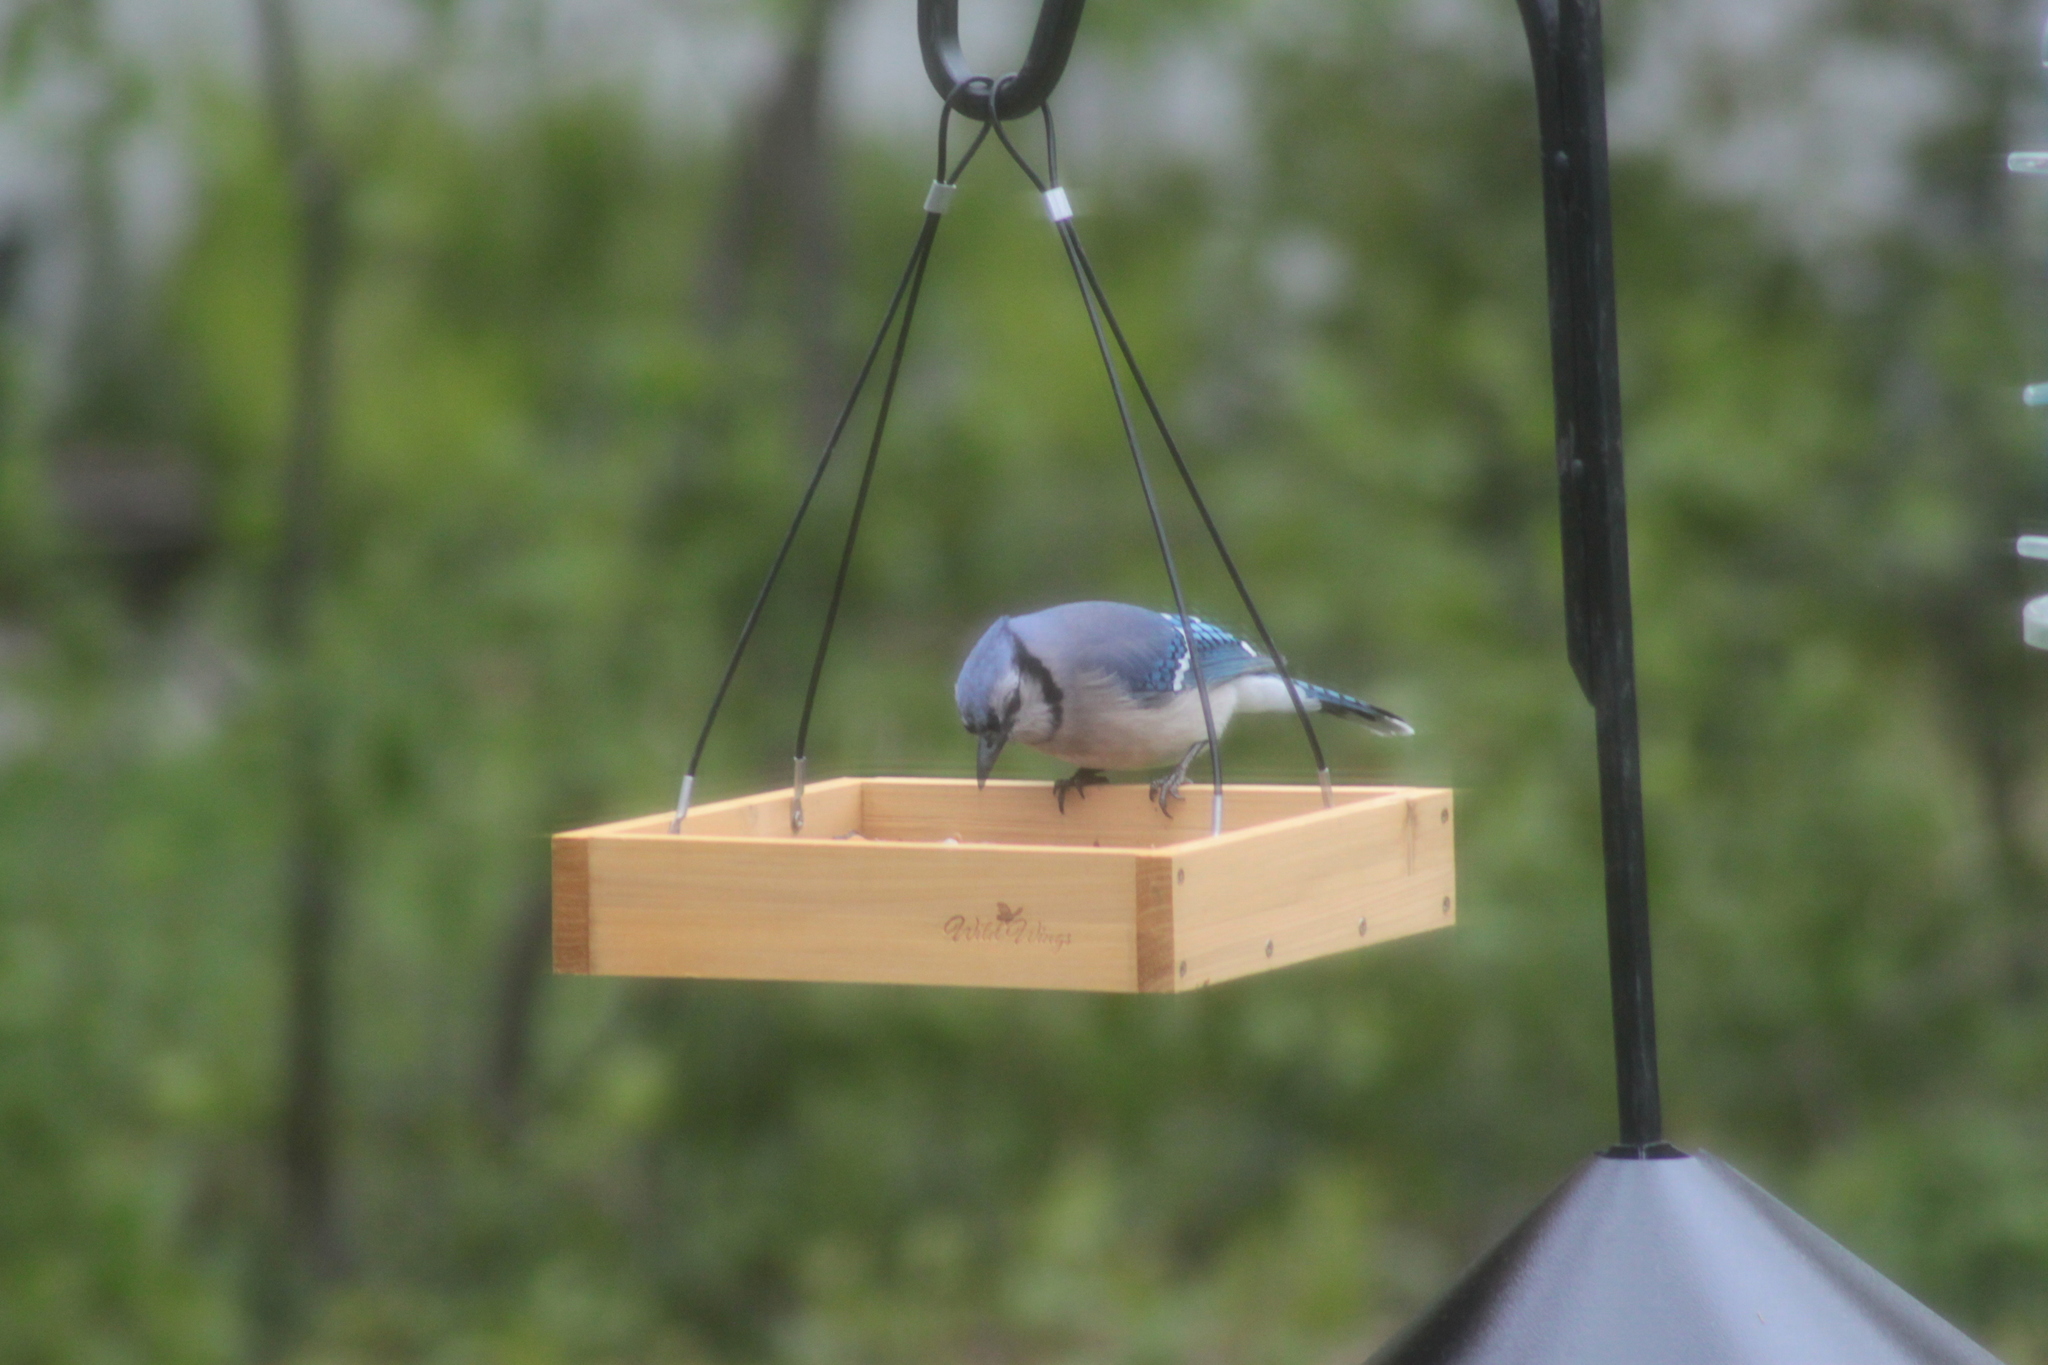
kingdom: Animalia
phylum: Chordata
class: Aves
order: Passeriformes
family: Corvidae
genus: Cyanocitta
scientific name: Cyanocitta cristata
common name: Blue jay
